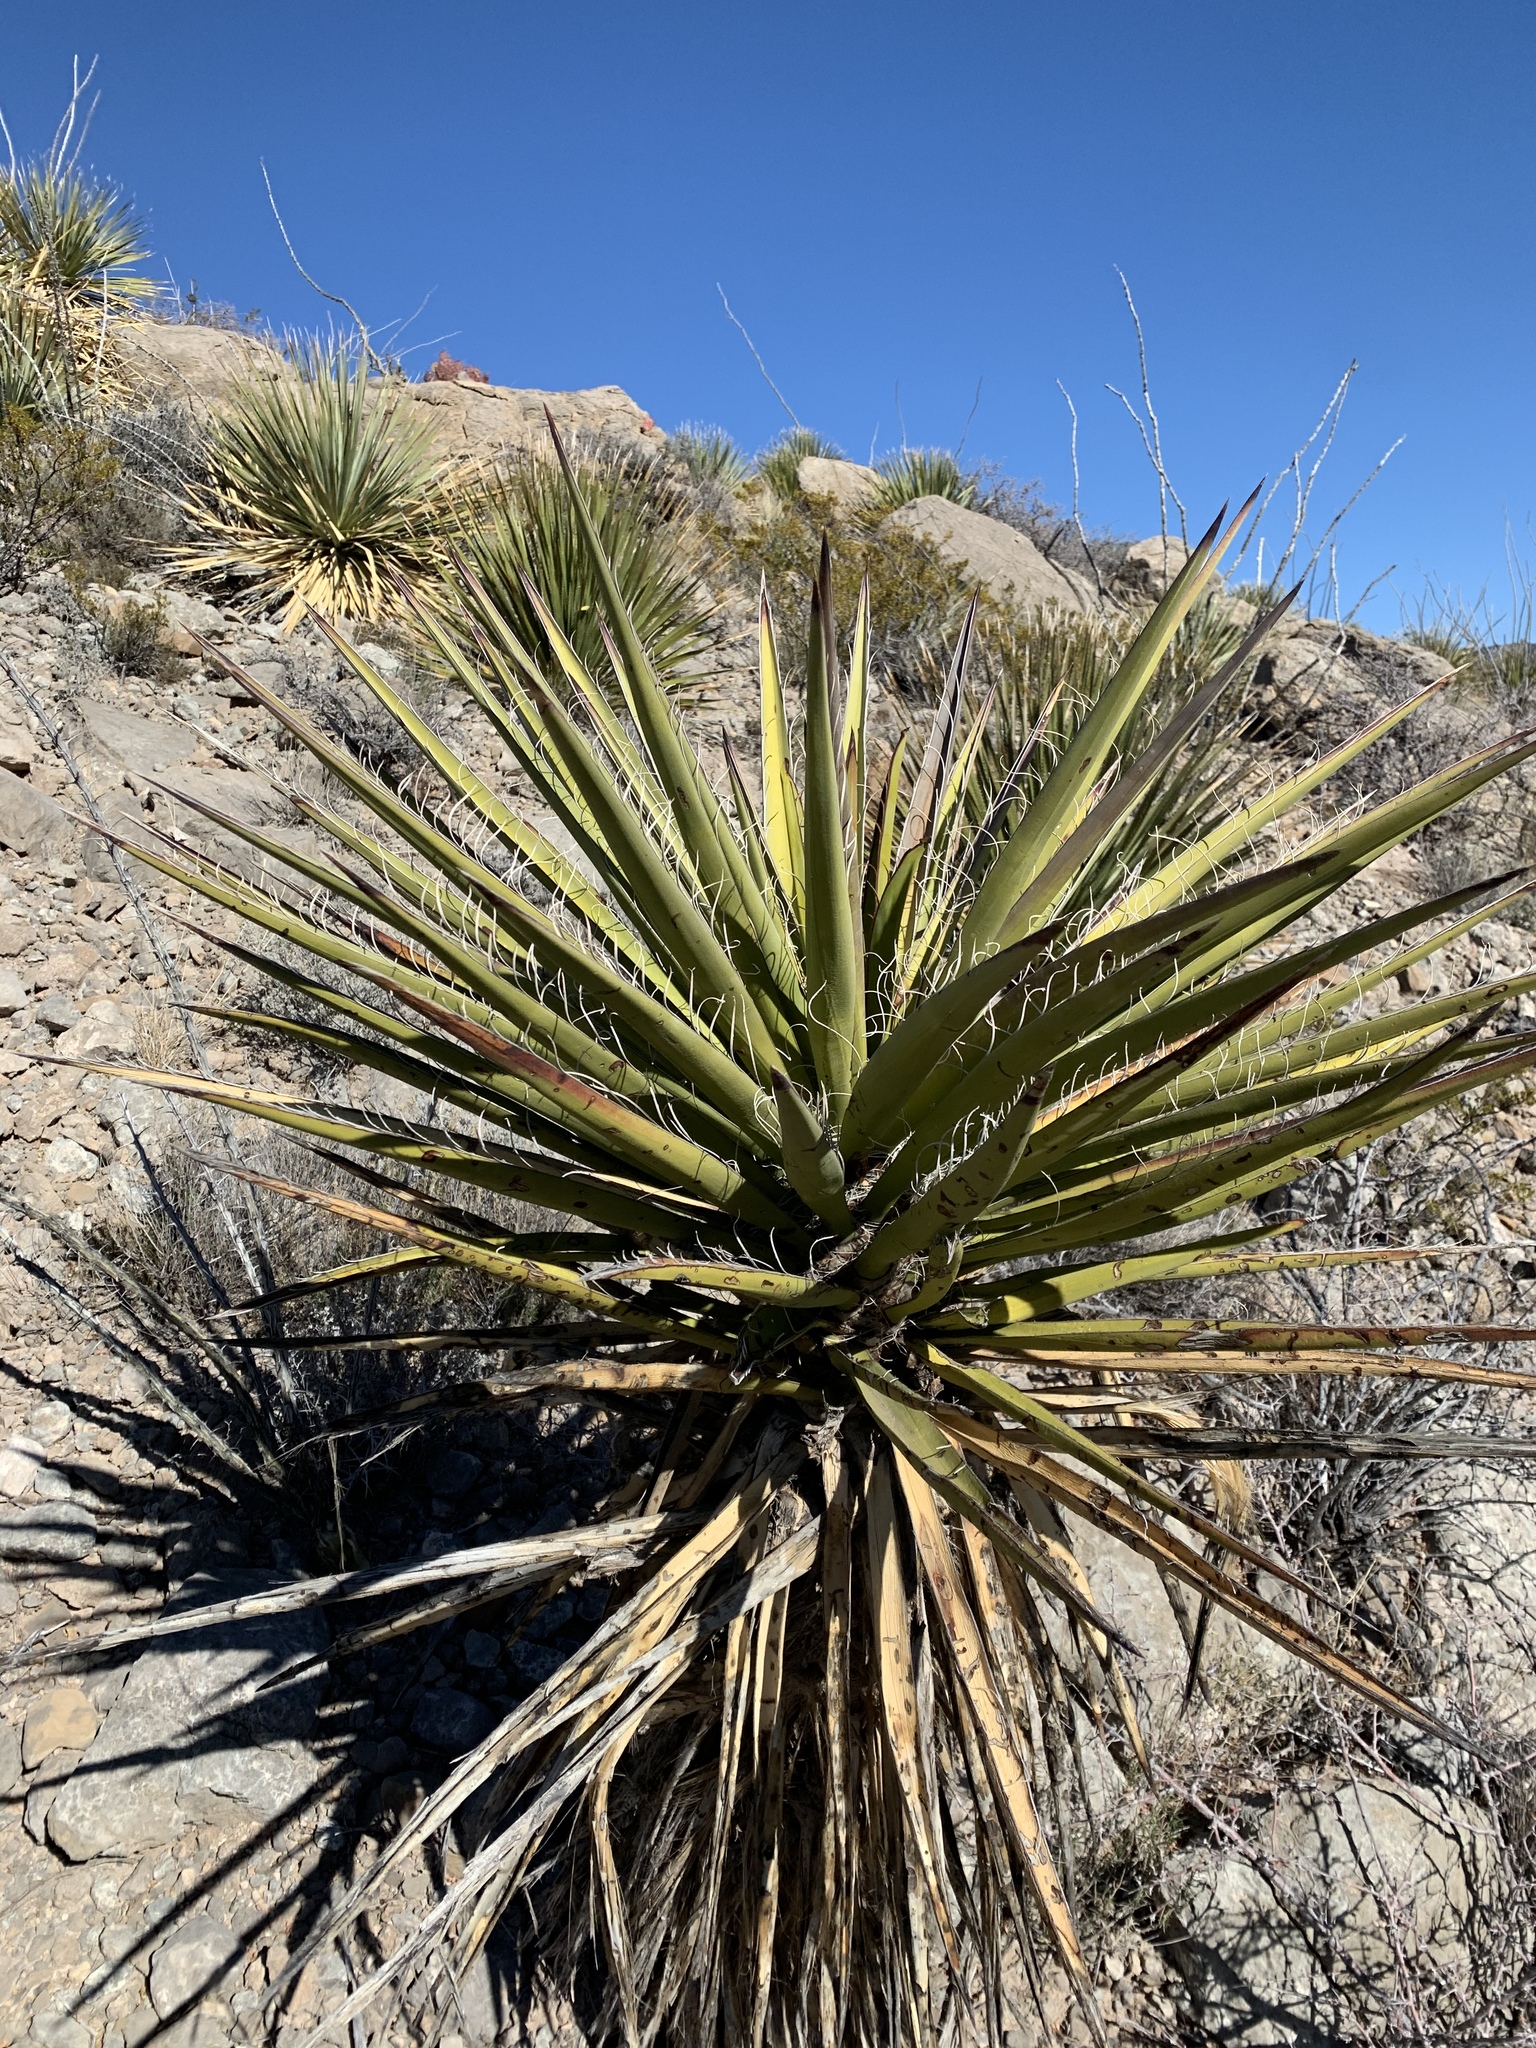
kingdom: Plantae
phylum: Tracheophyta
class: Liliopsida
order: Asparagales
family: Asparagaceae
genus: Yucca
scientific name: Yucca treculiana
